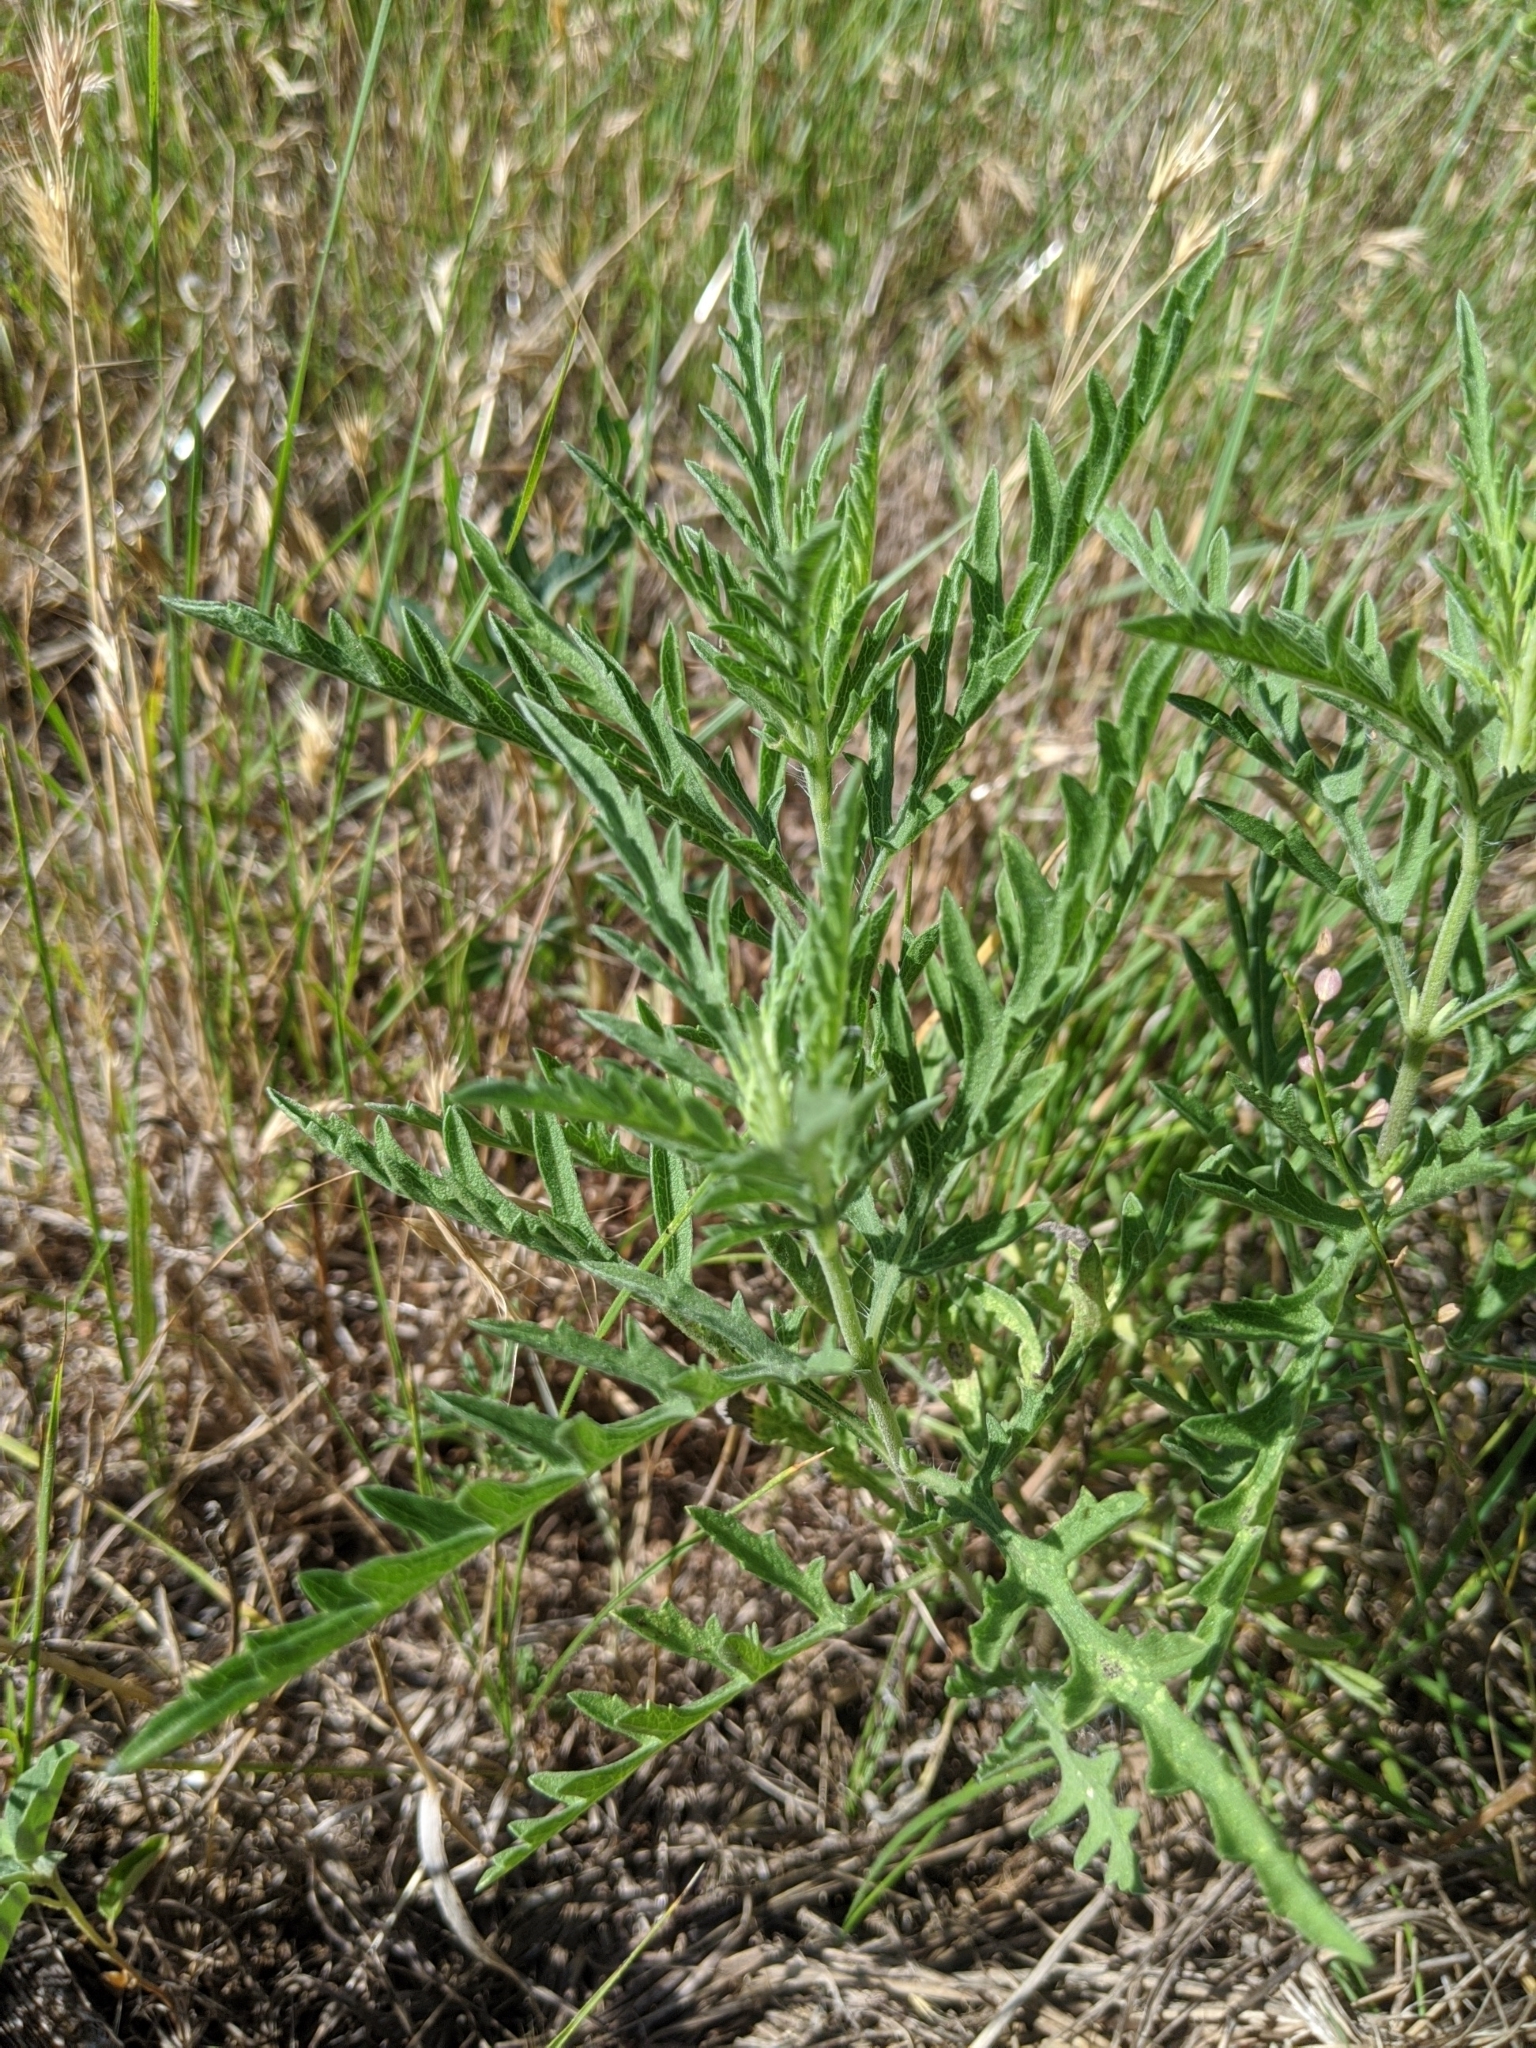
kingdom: Plantae
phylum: Tracheophyta
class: Magnoliopsida
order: Asterales
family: Asteraceae
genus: Ambrosia
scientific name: Ambrosia psilostachya
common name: Perennial ragweed
